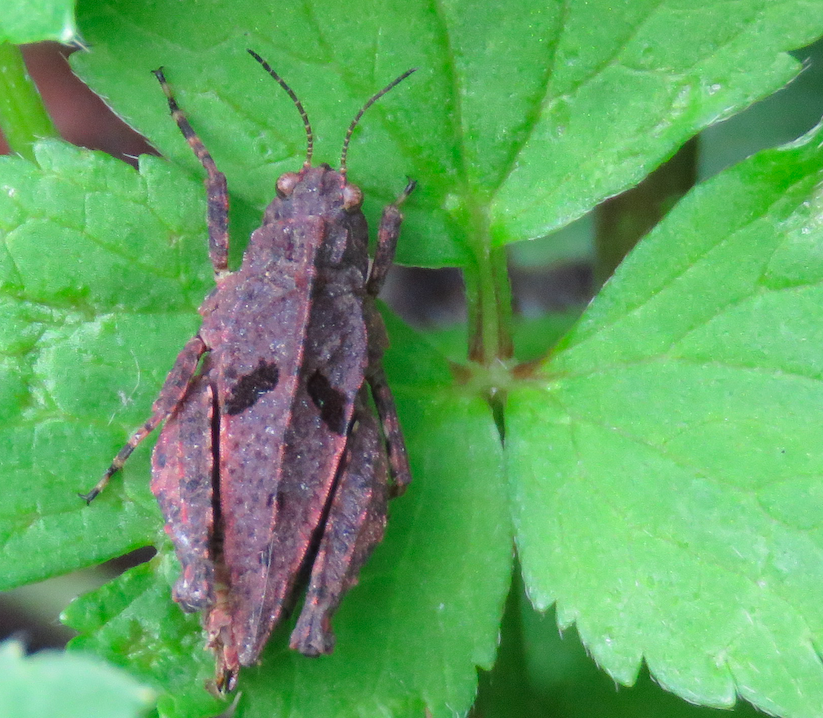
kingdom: Animalia
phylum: Arthropoda
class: Insecta
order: Orthoptera
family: Tetrigidae
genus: Tetrix
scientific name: Tetrix transsylvanica
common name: Transsylvanian wingless groundhopper
